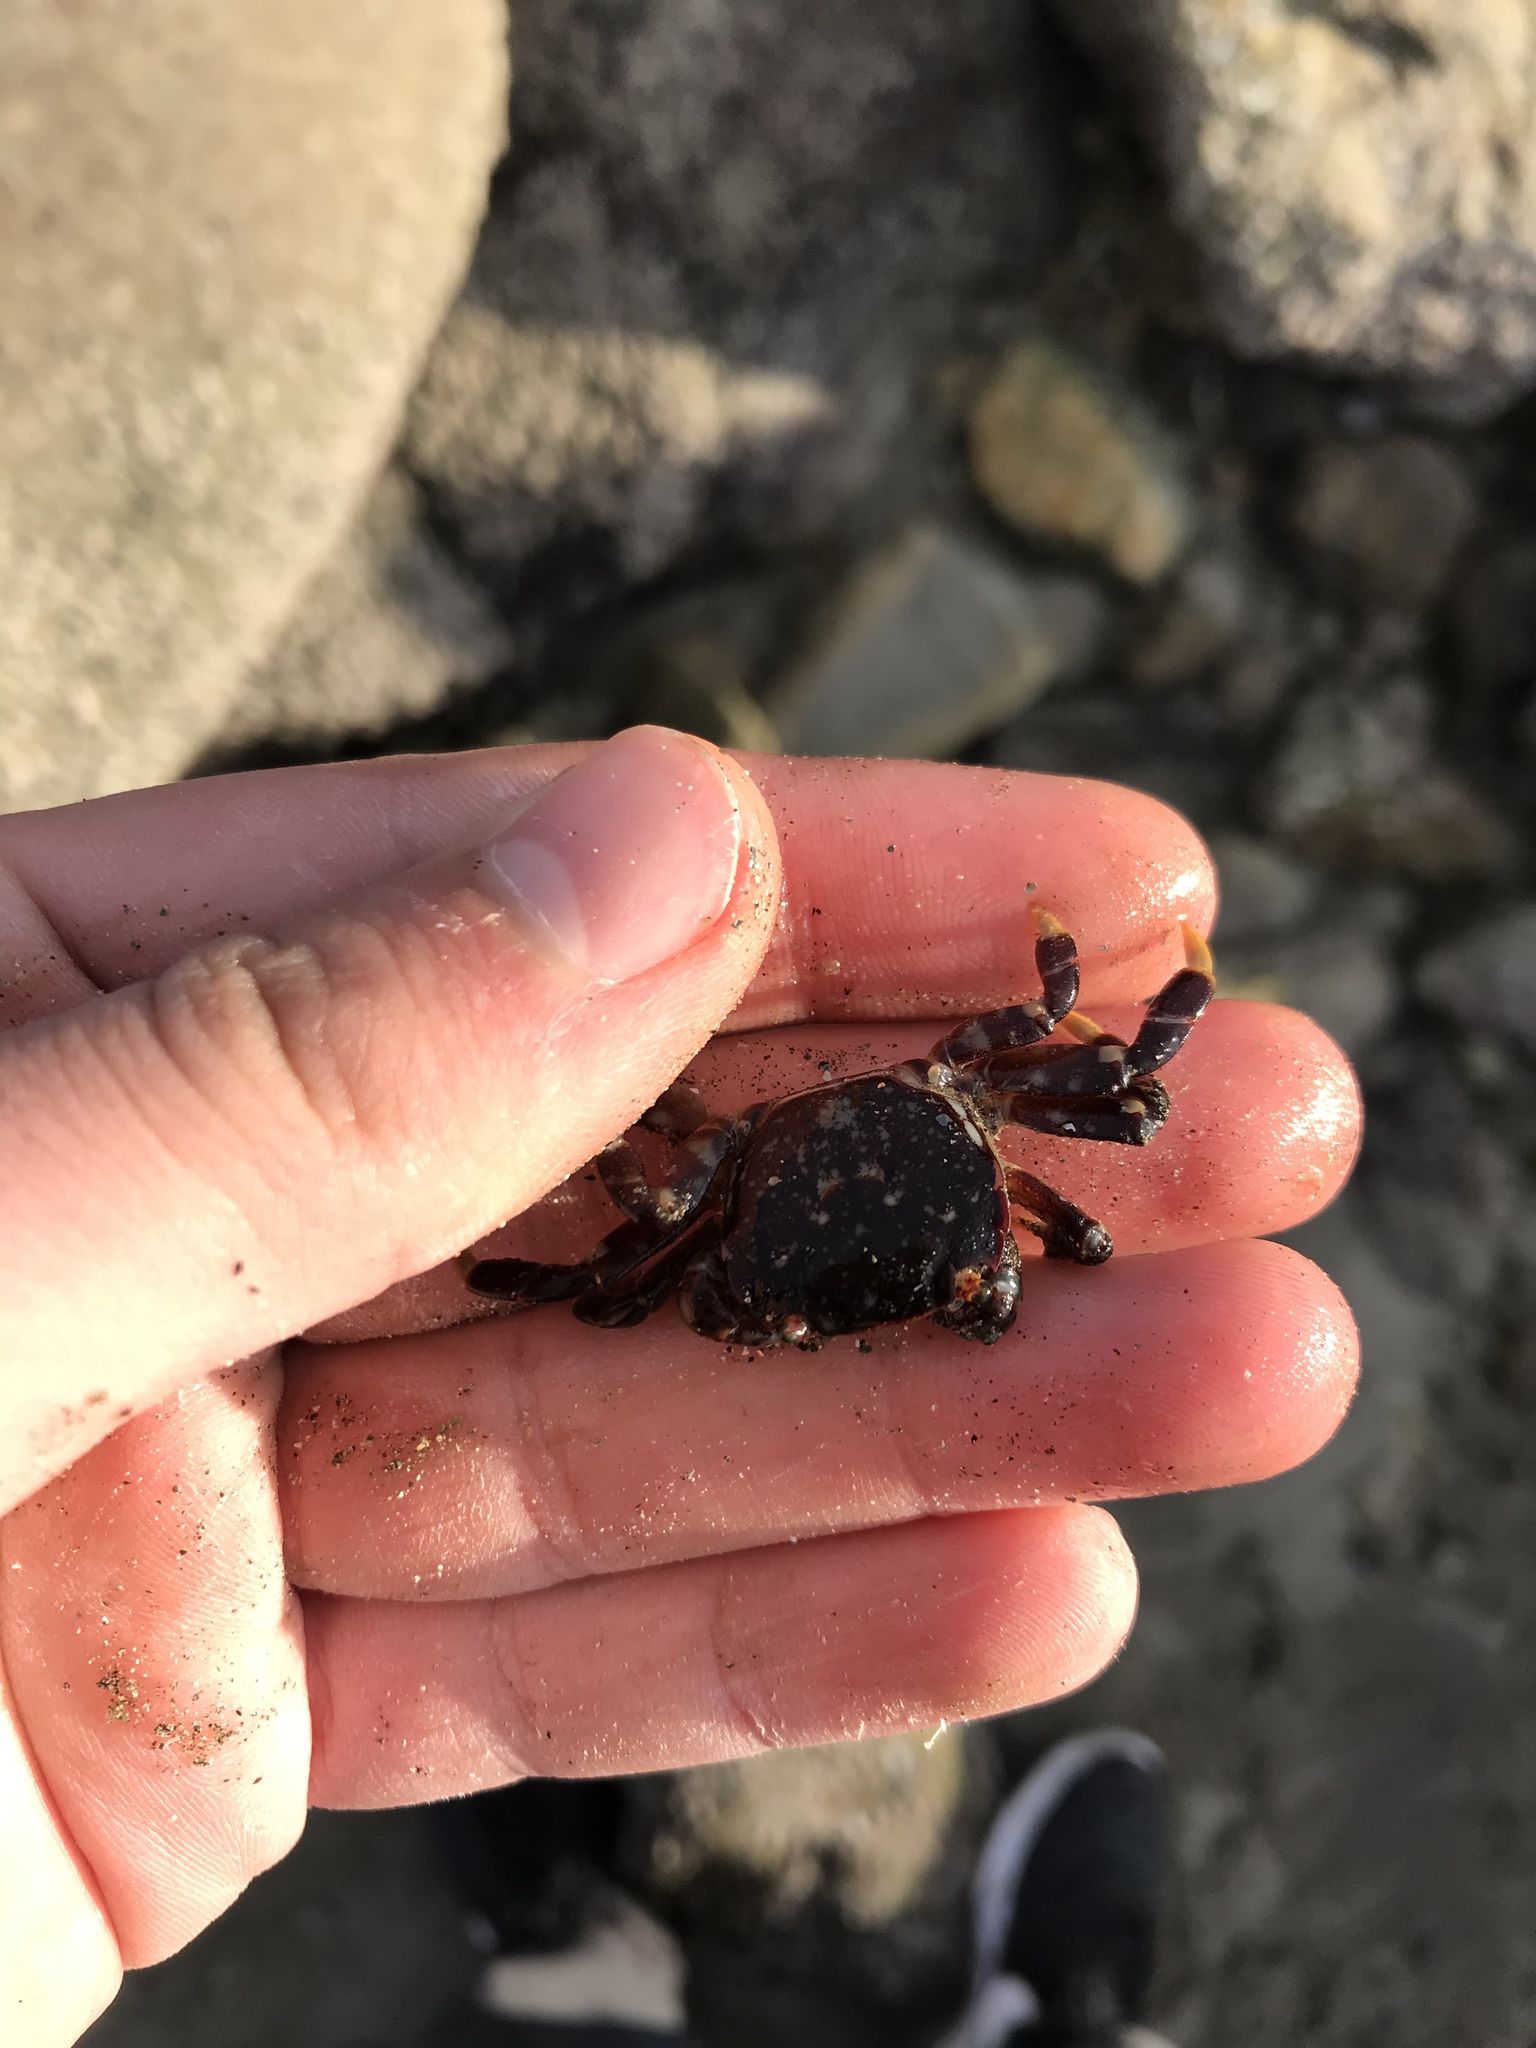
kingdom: Animalia
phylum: Arthropoda
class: Malacostraca
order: Decapoda
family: Varunidae
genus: Hemigrapsus
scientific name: Hemigrapsus nudus
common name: Purple shore crab
